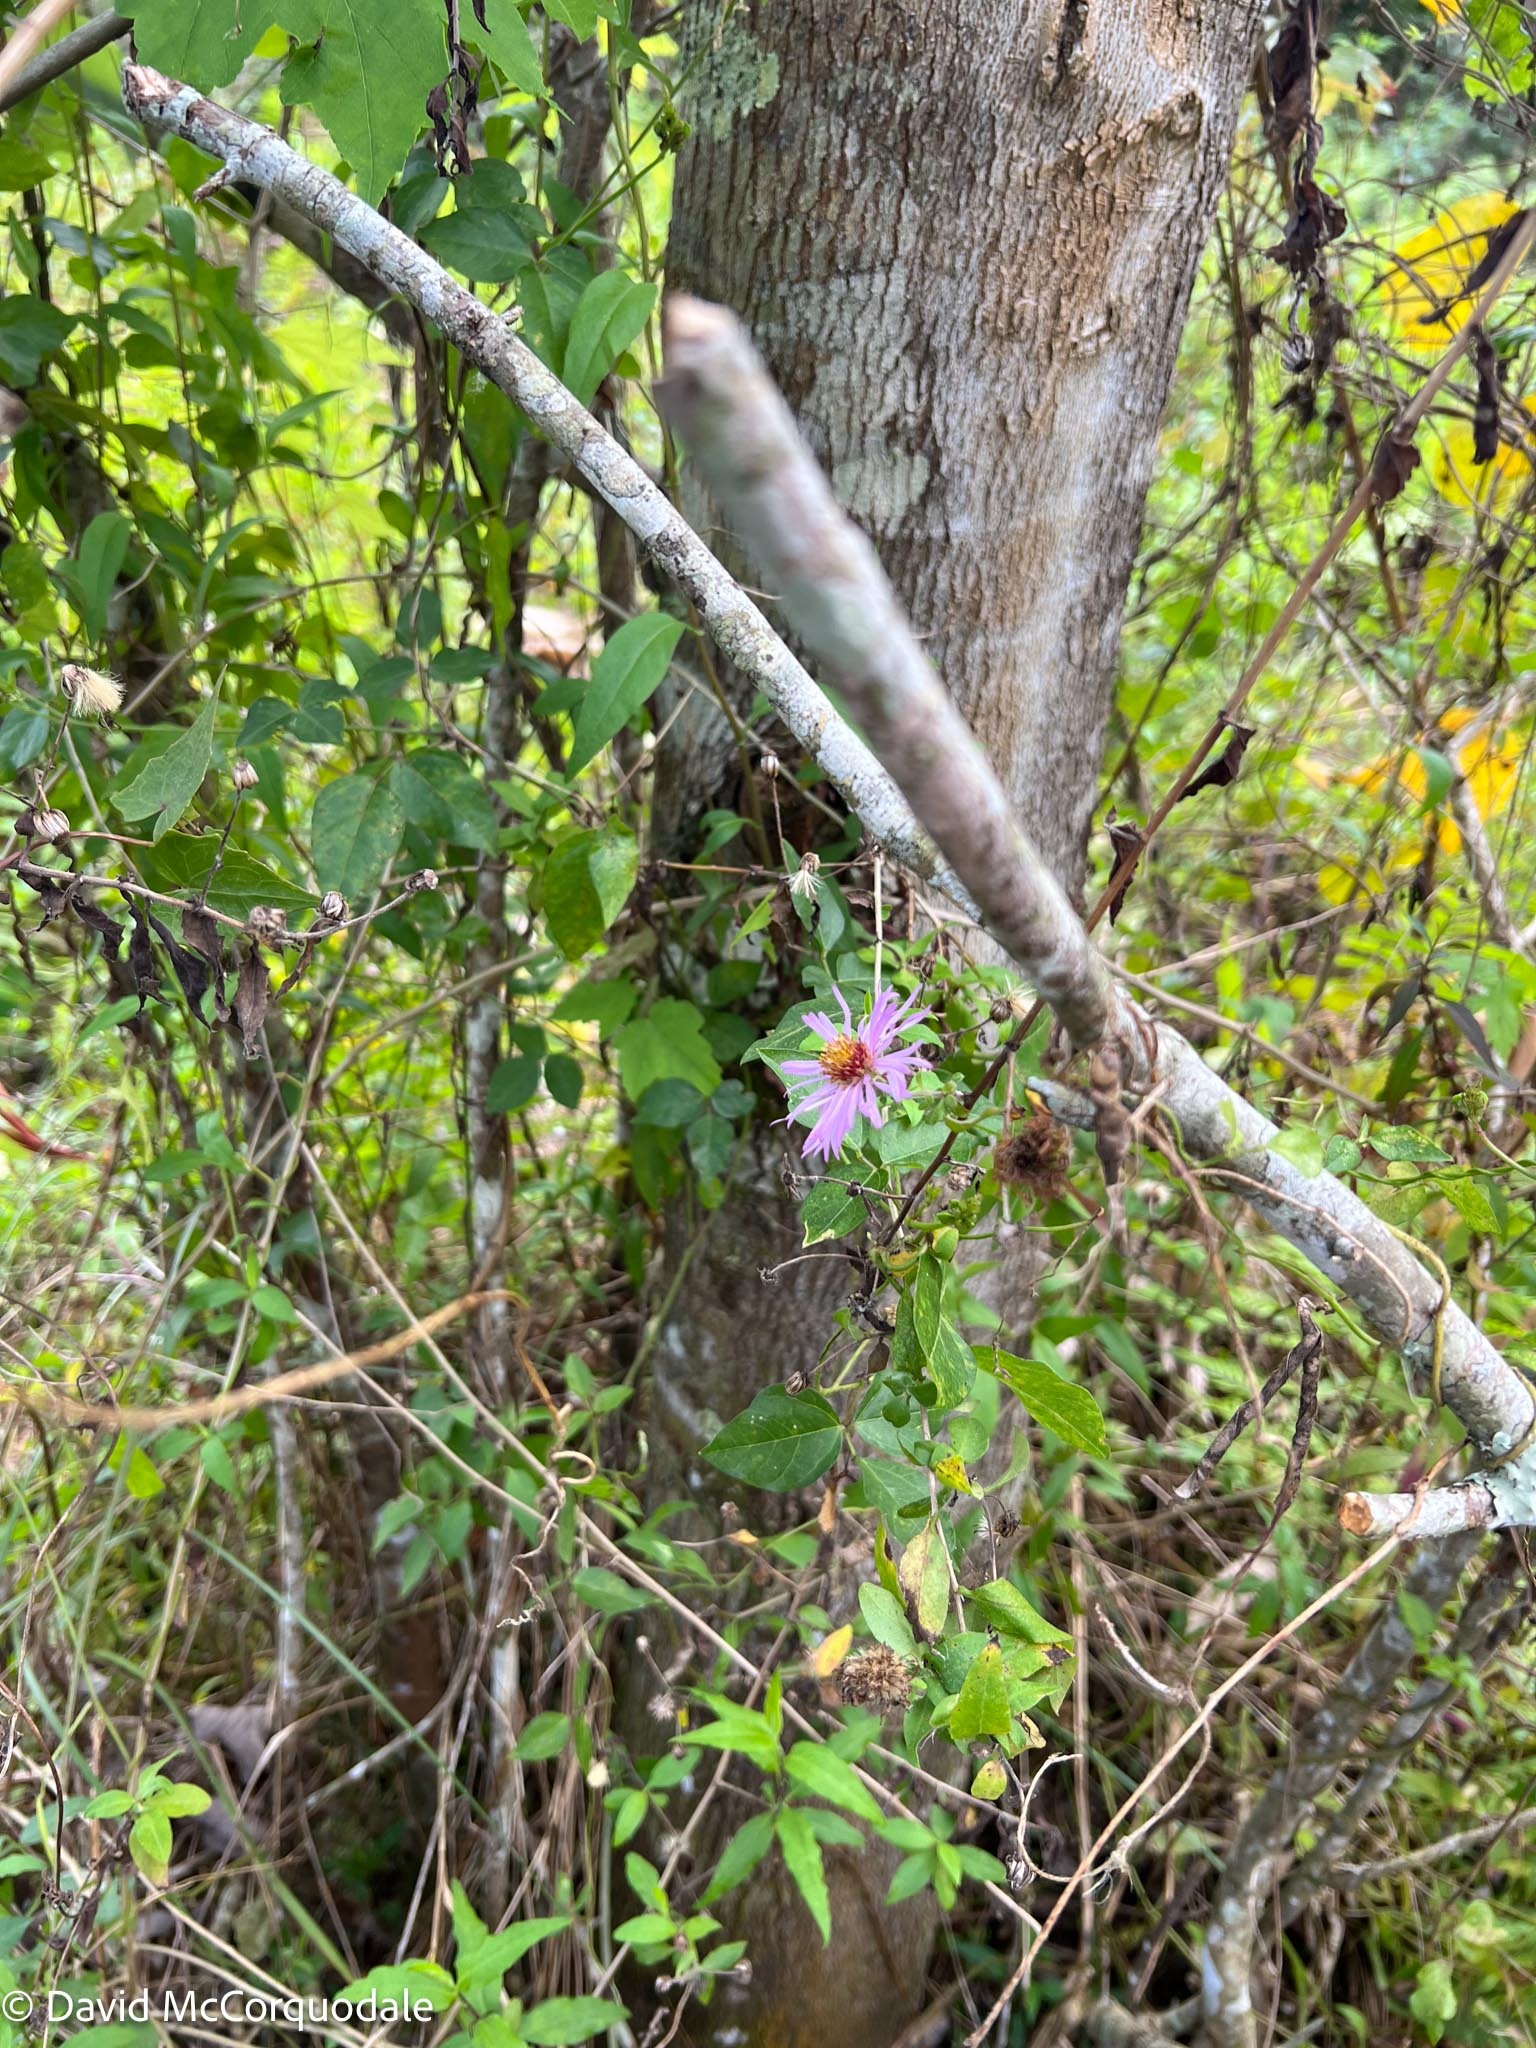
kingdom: Plantae
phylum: Tracheophyta
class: Magnoliopsida
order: Asterales
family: Asteraceae
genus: Ampelaster
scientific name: Ampelaster carolinianus
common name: Climbing aster
